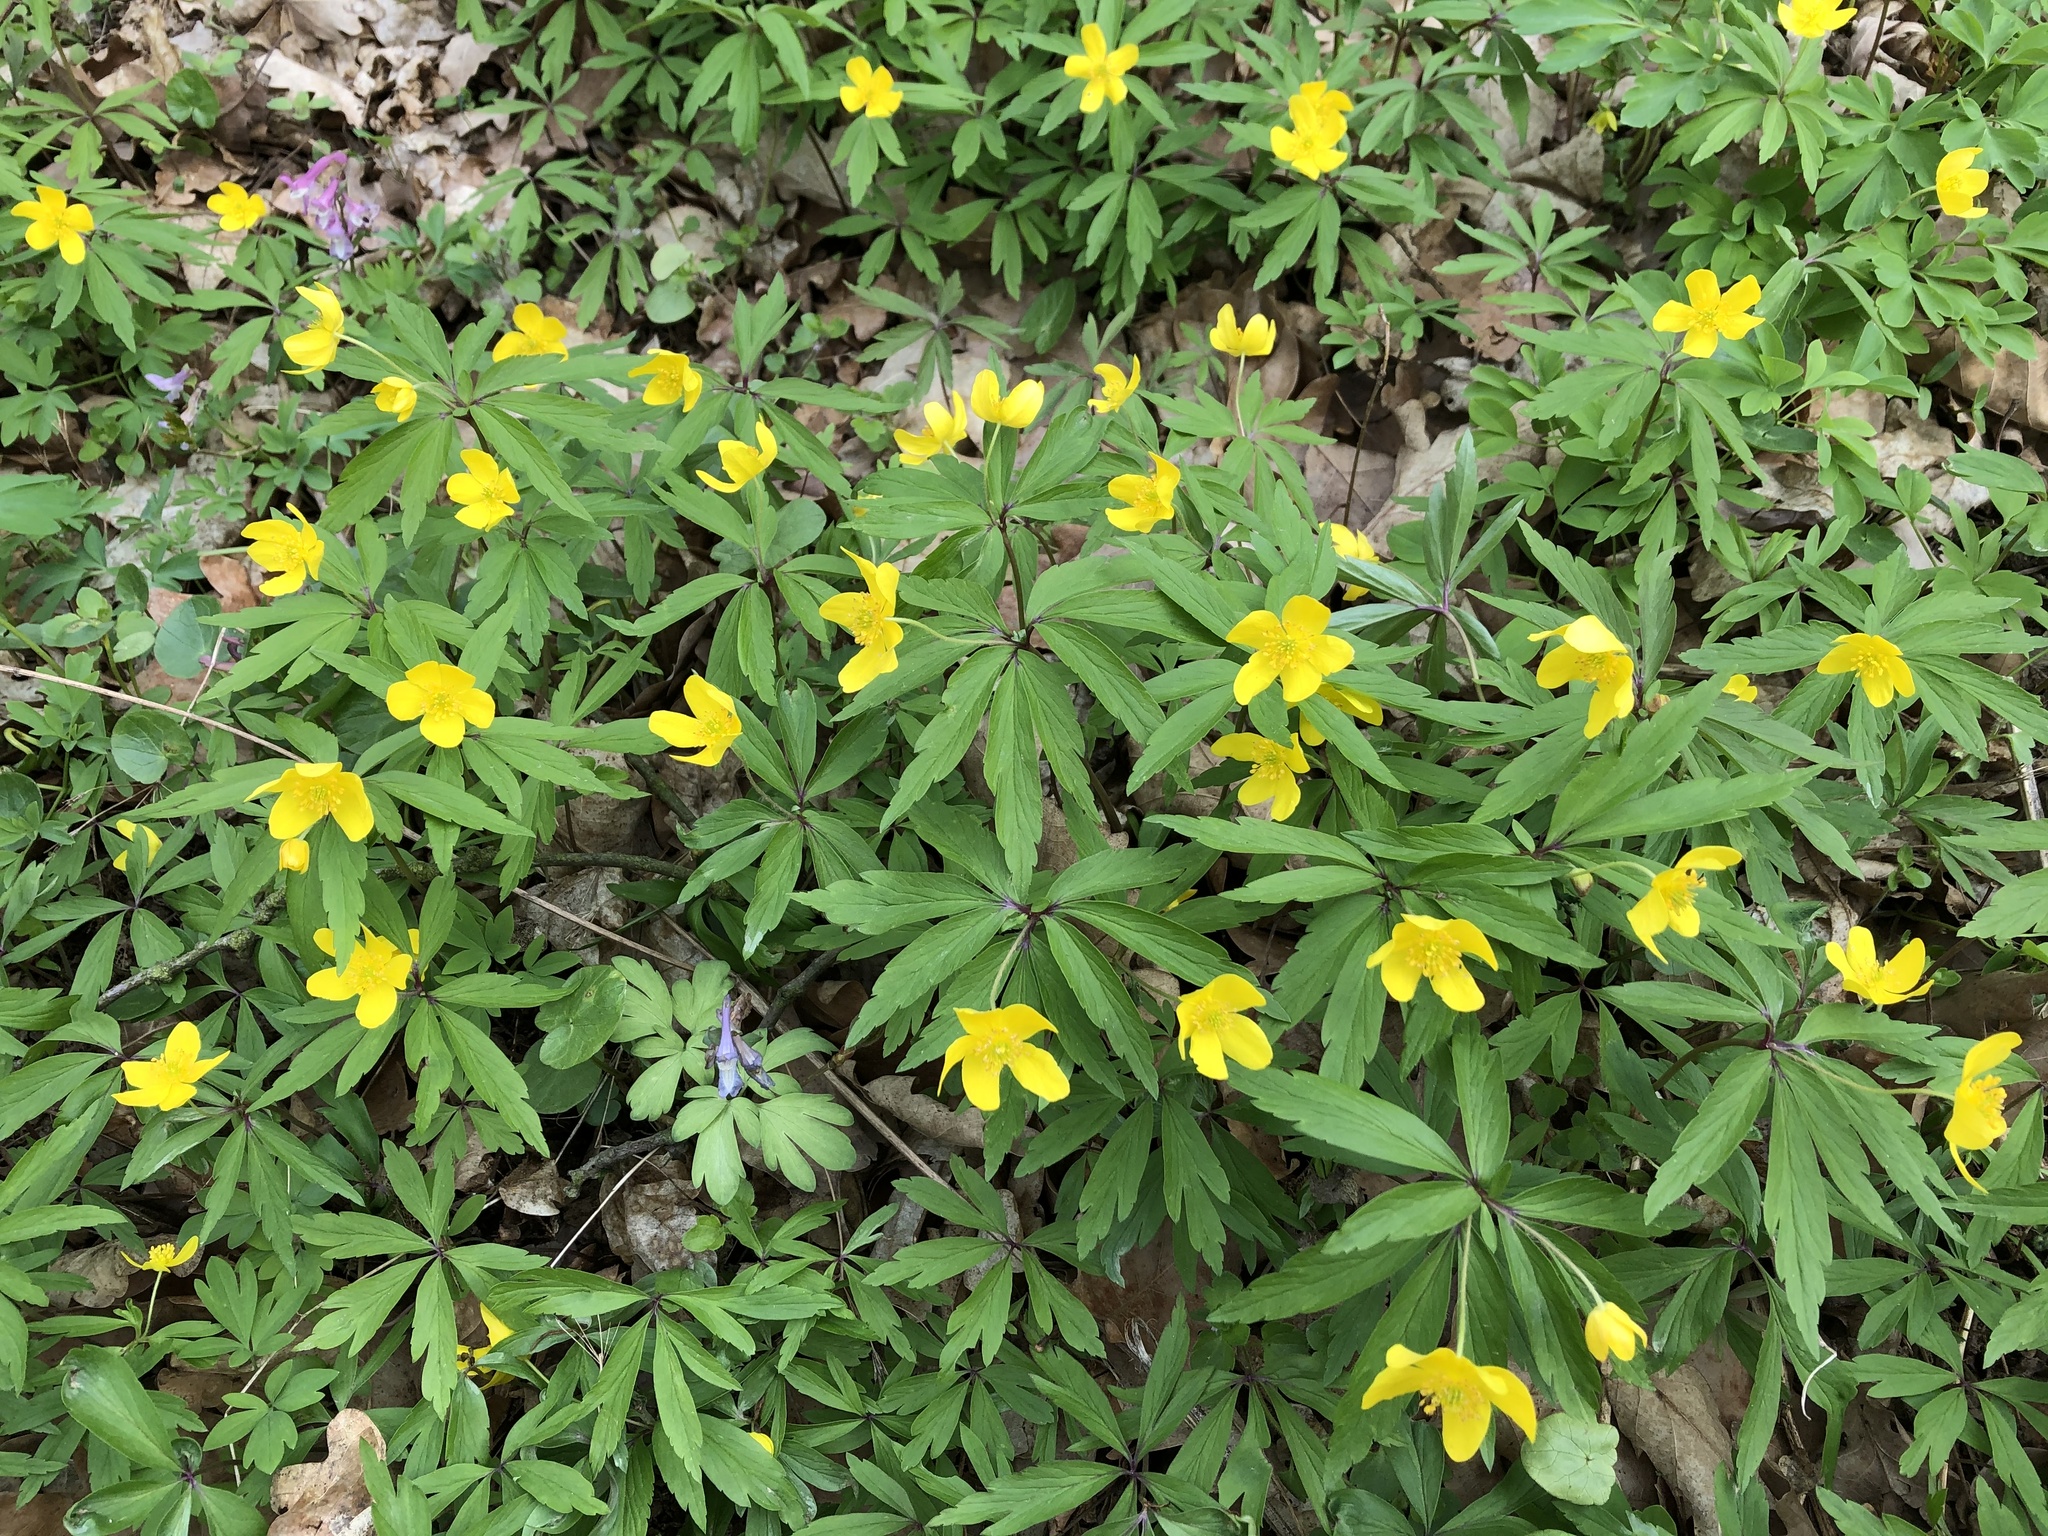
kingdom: Plantae
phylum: Tracheophyta
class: Magnoliopsida
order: Ranunculales
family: Ranunculaceae
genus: Anemone
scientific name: Anemone ranunculoides
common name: Yellow anemone
